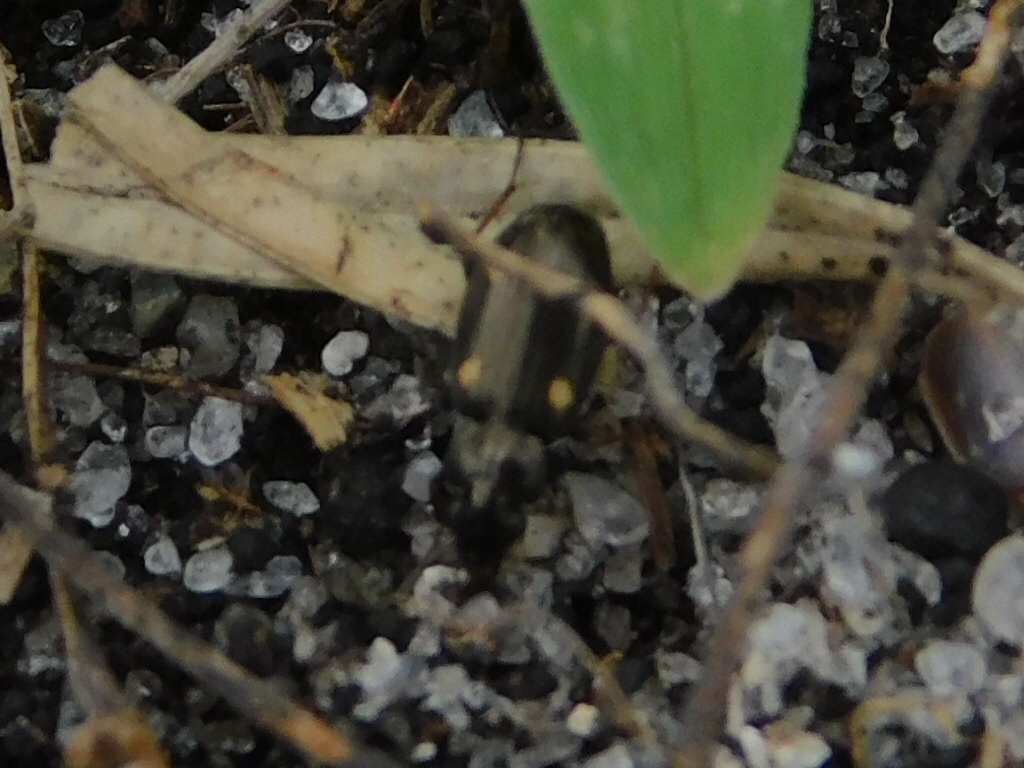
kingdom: Animalia
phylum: Arthropoda
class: Insecta
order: Coleoptera
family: Carabidae
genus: Tetragonoderus
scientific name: Tetragonoderus laevigatus
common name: Ground beetle
